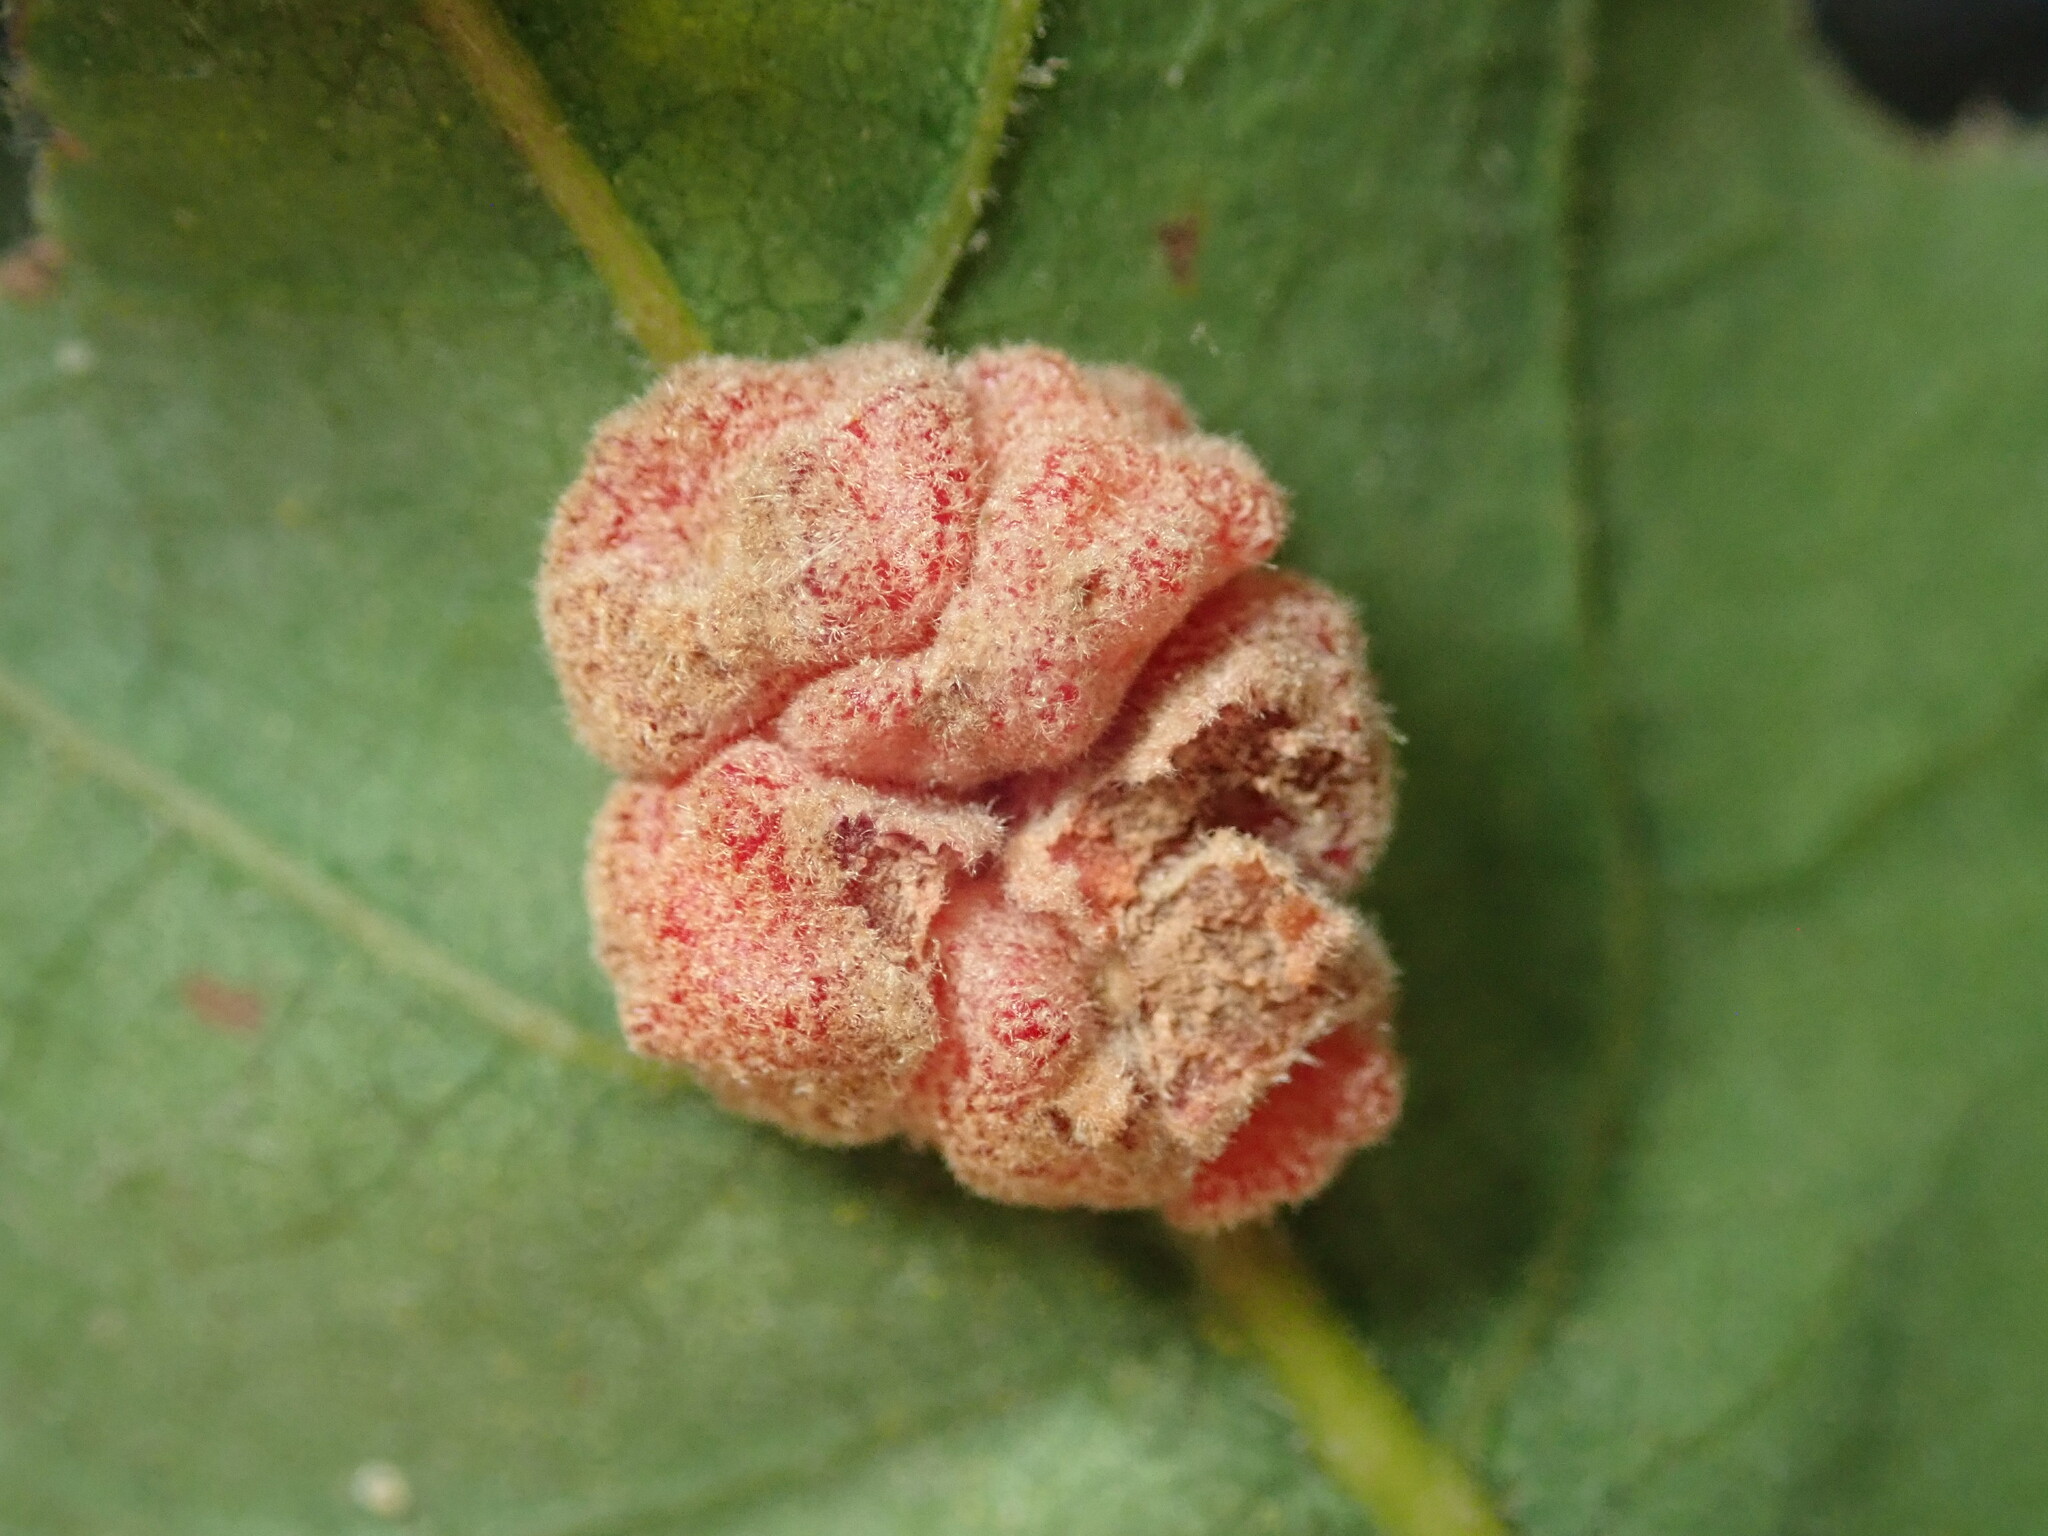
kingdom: Animalia
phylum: Arthropoda
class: Insecta
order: Hymenoptera
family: Cynipidae
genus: Andricus
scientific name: Andricus
